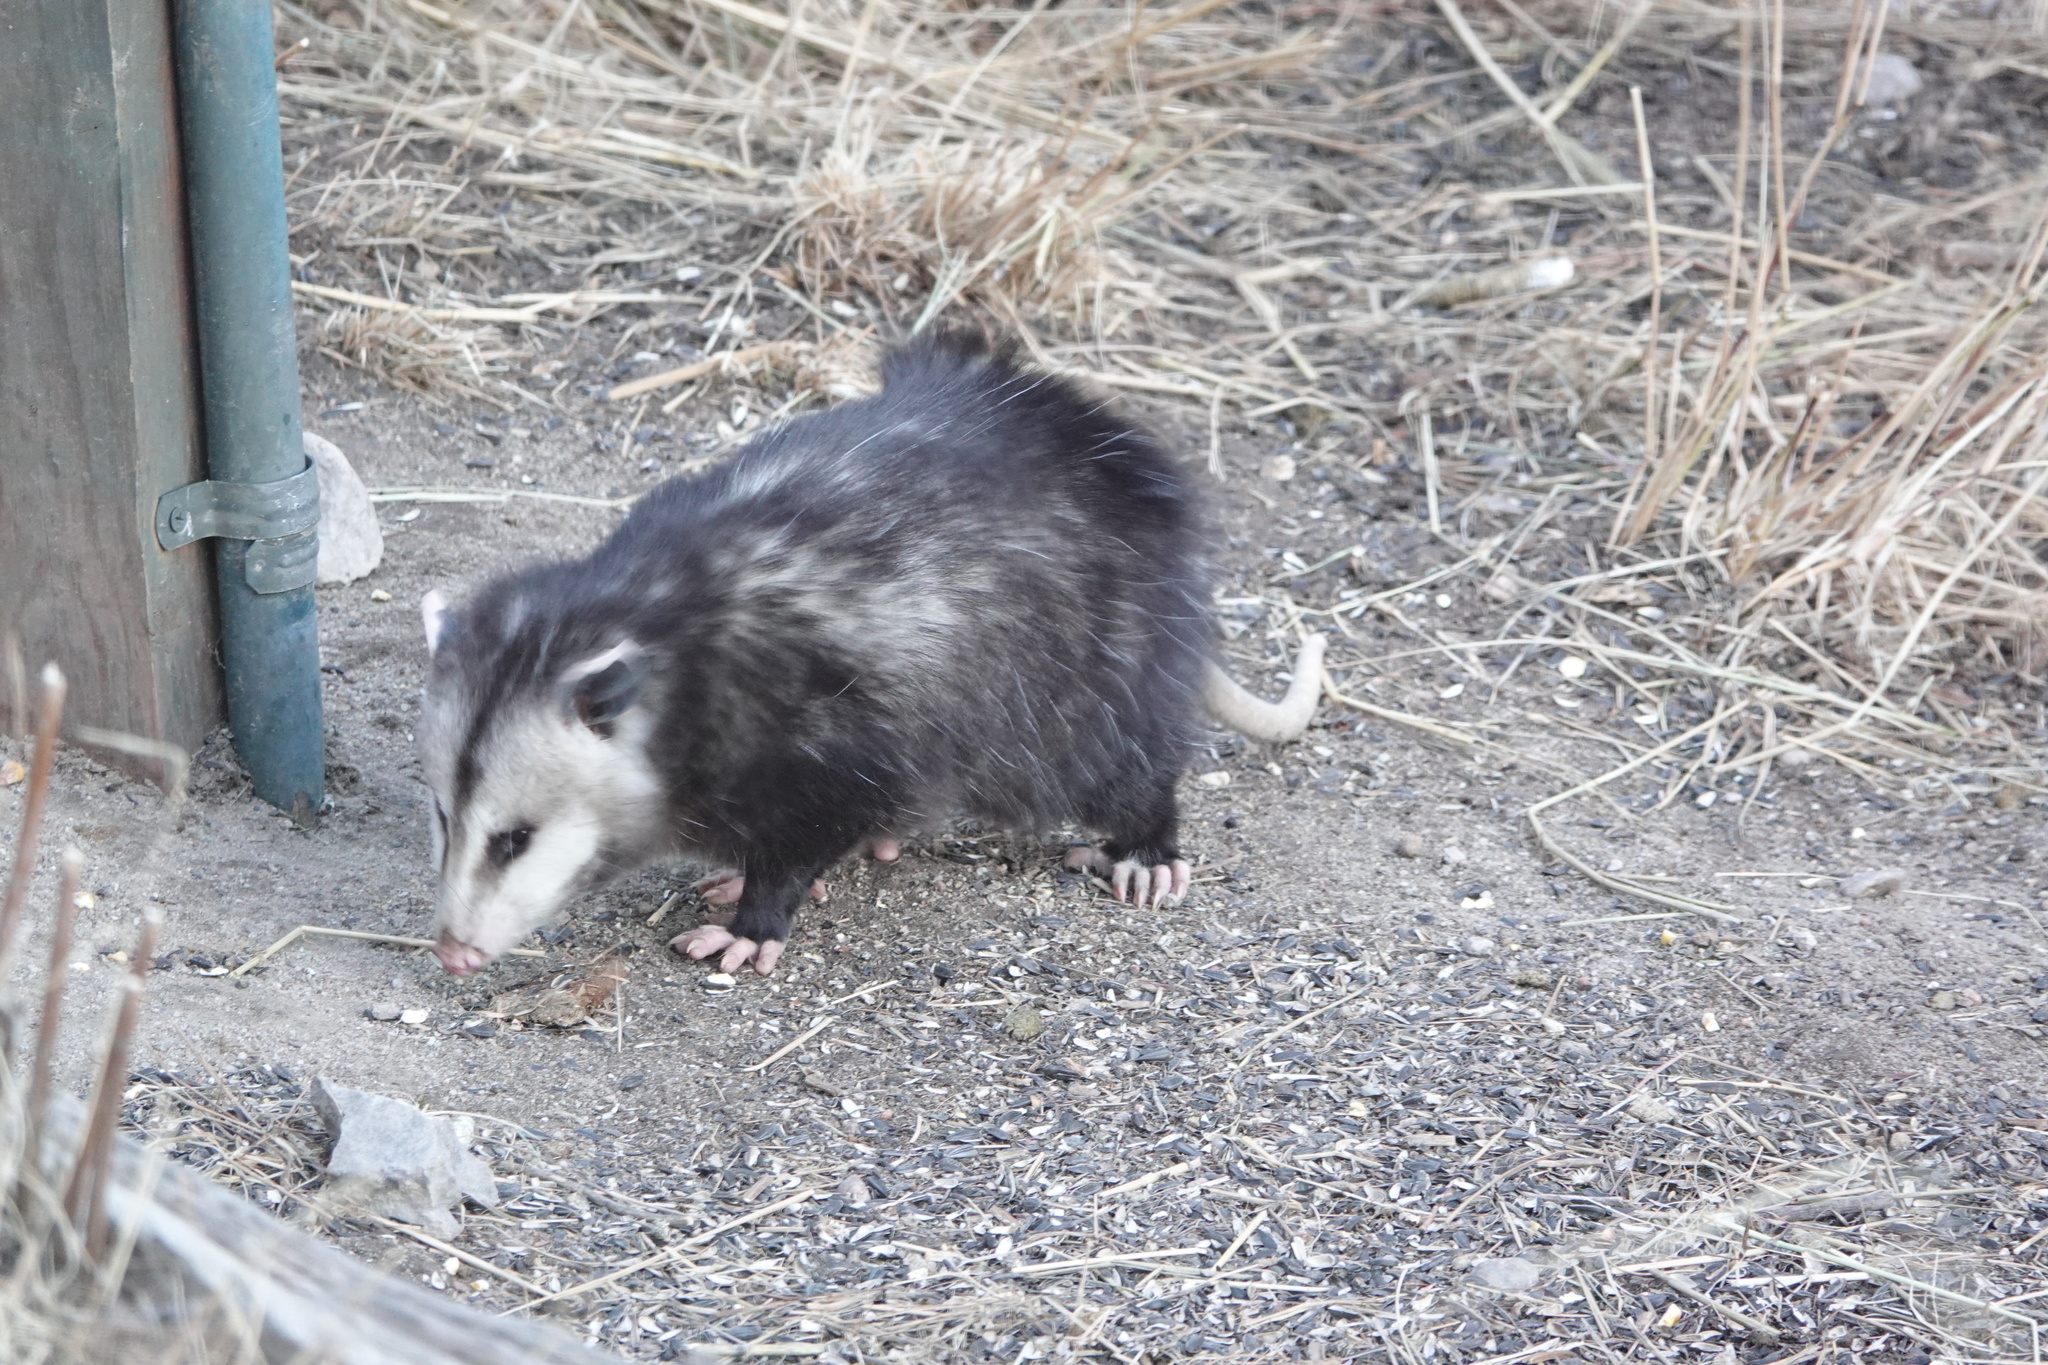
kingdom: Animalia
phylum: Chordata
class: Mammalia
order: Didelphimorphia
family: Didelphidae
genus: Didelphis
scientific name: Didelphis virginiana
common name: Virginia opossum
